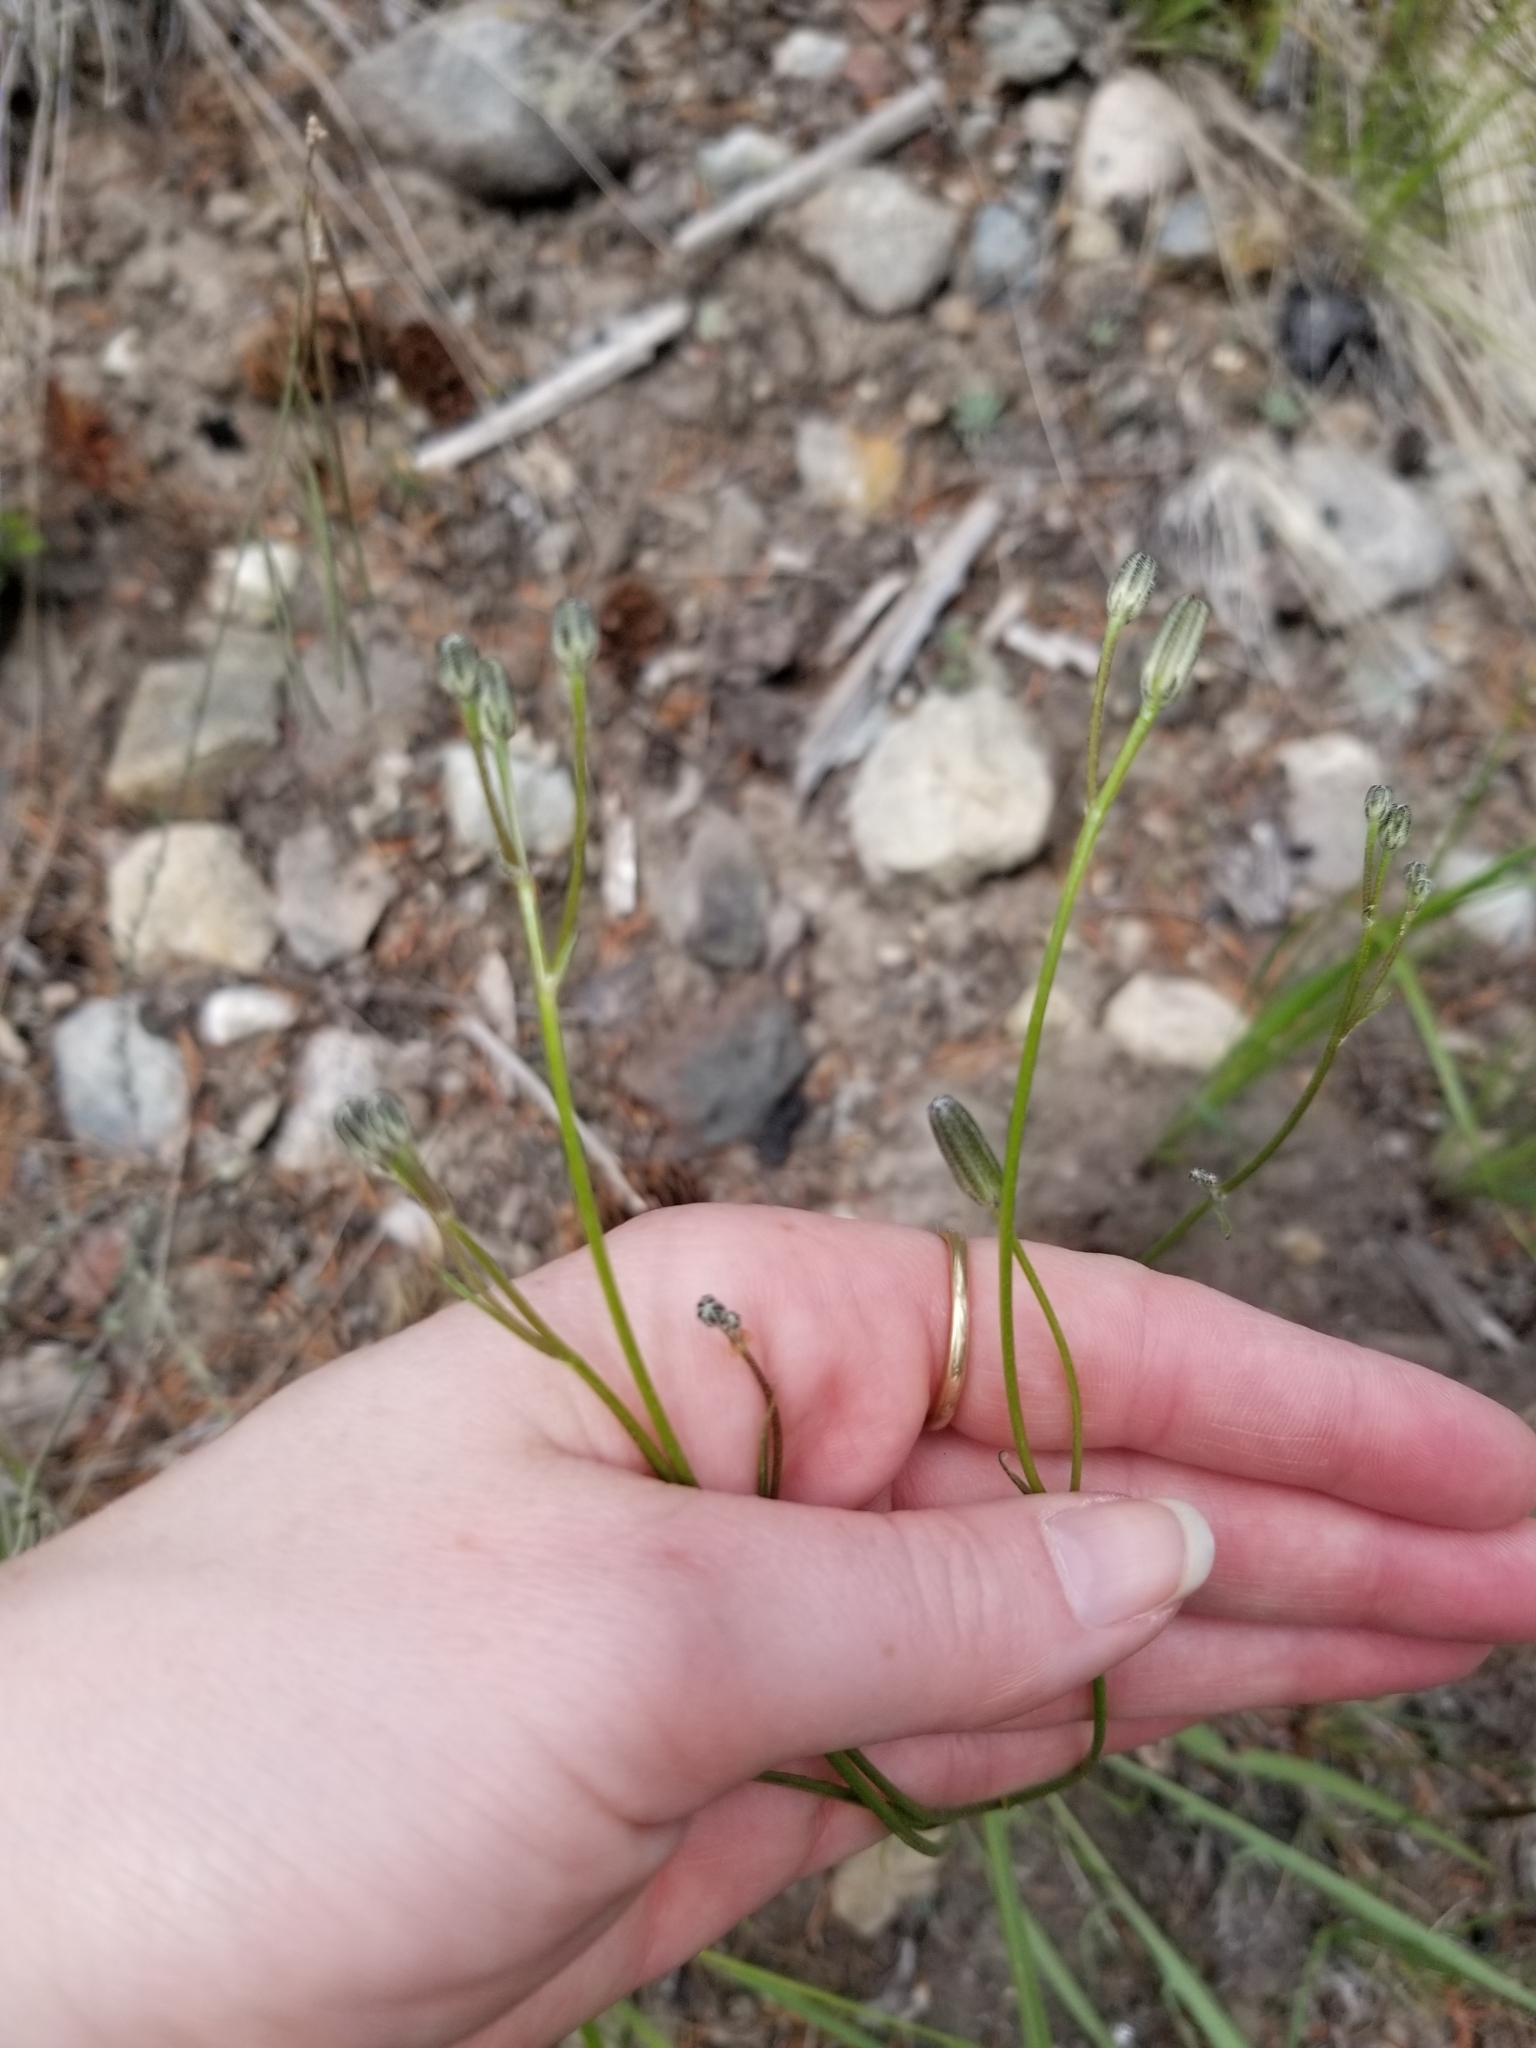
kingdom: Plantae
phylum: Tracheophyta
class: Magnoliopsida
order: Asterales
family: Asteraceae
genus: Crepis
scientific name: Crepis atribarba
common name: Dark hawk's-beard
